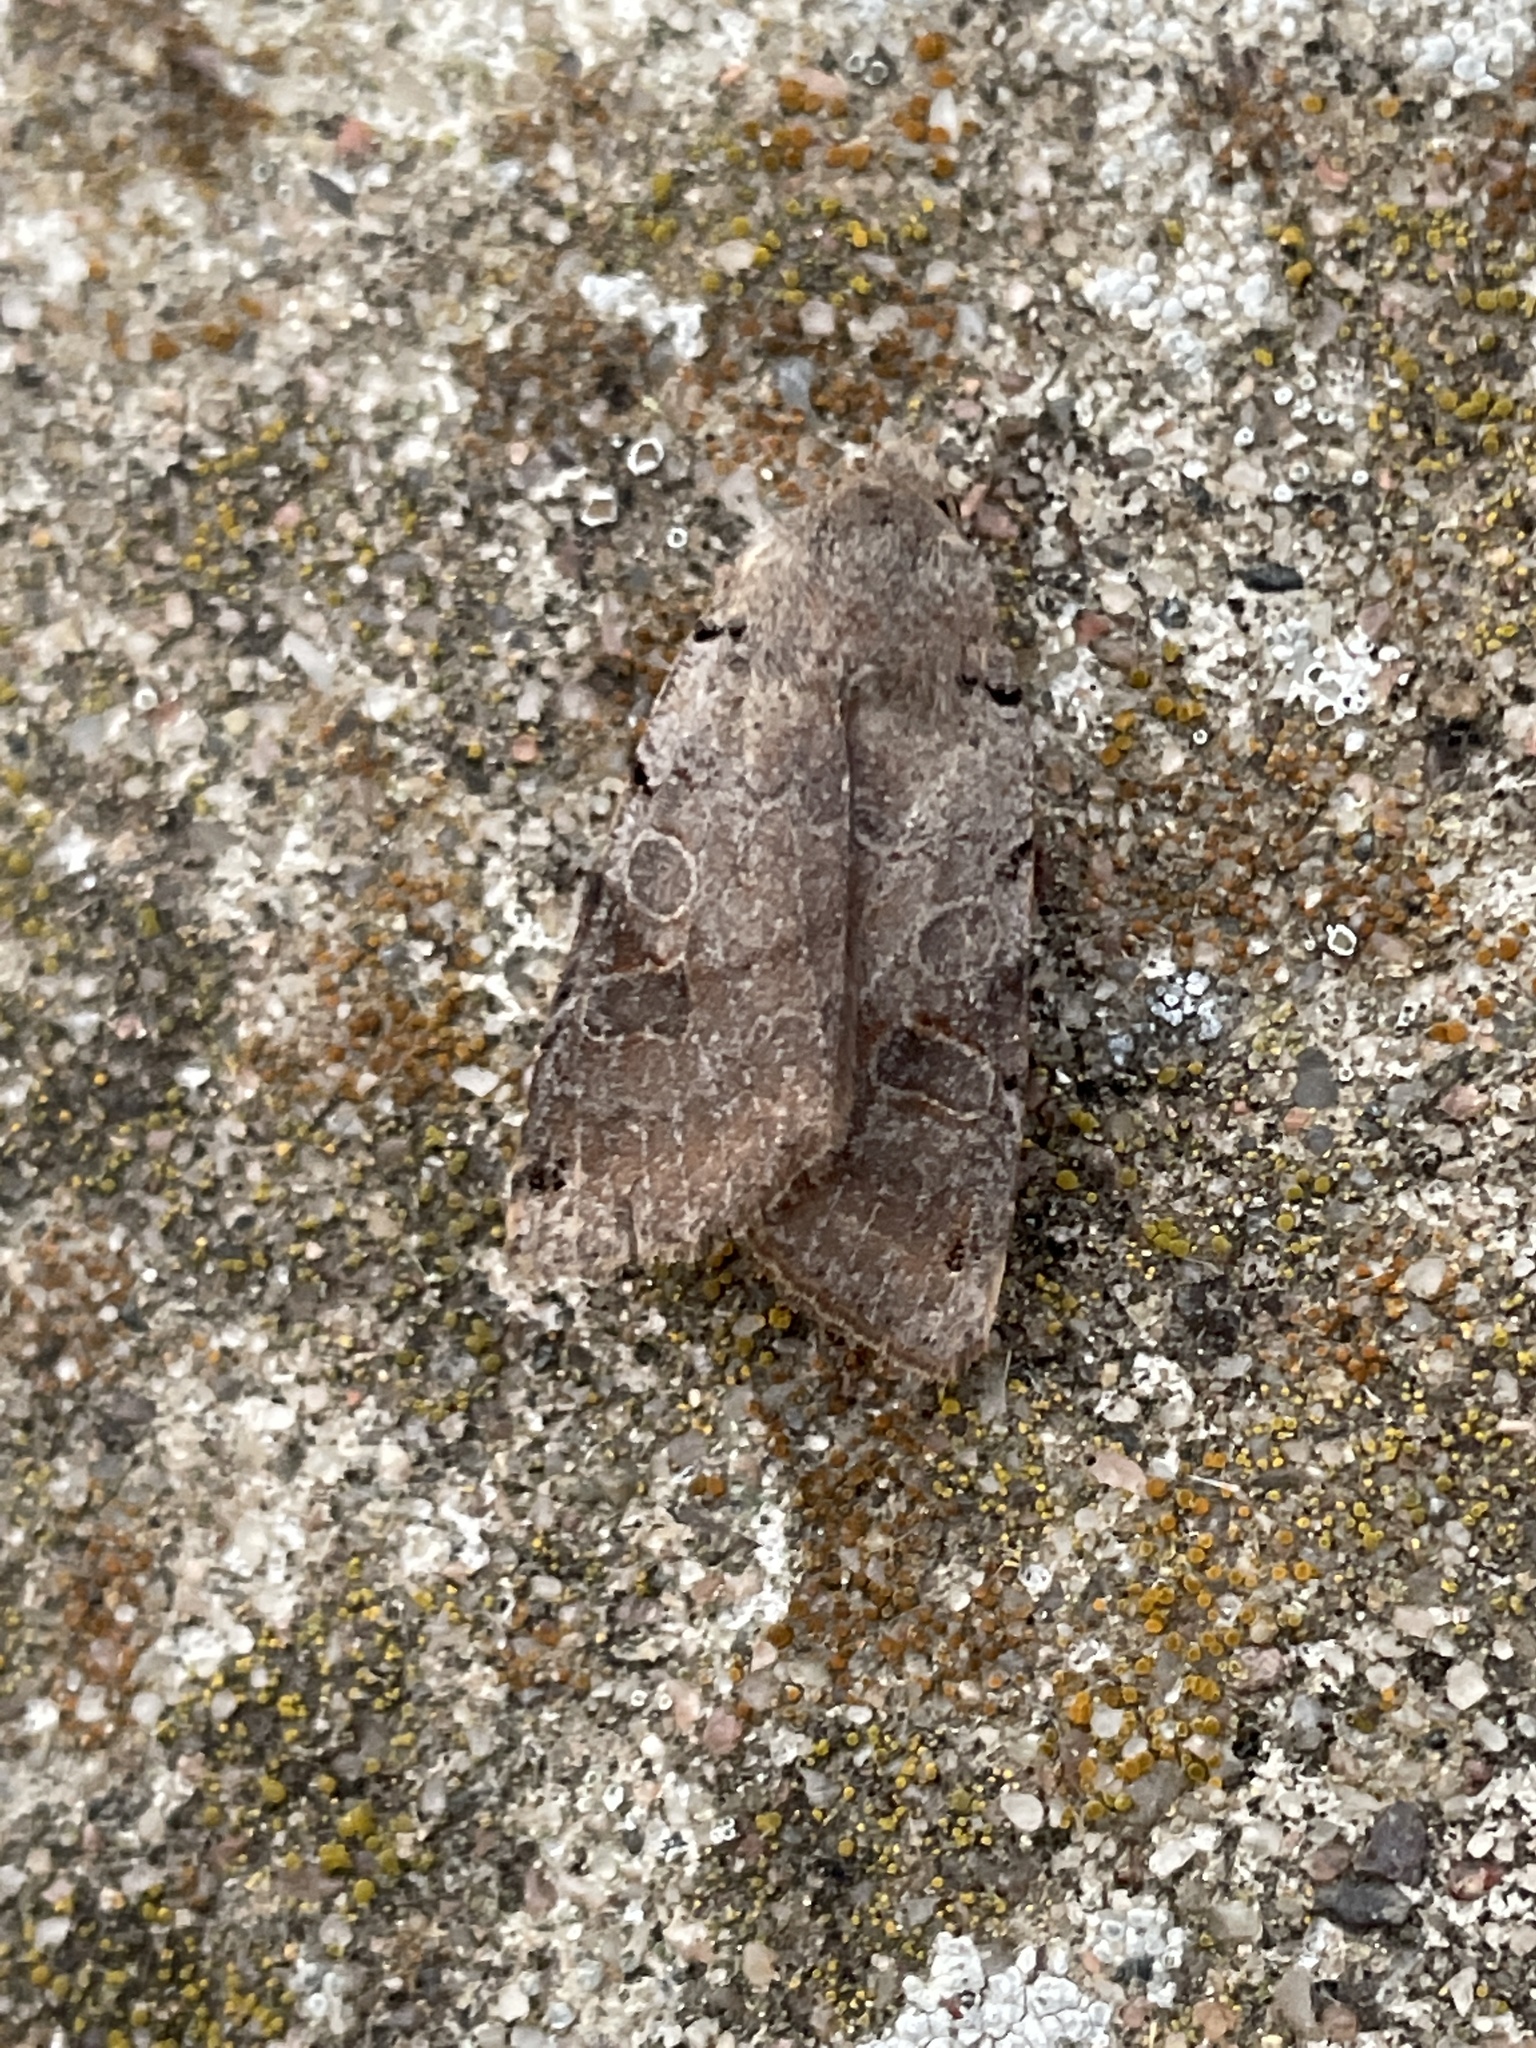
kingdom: Animalia
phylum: Arthropoda
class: Insecta
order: Lepidoptera
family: Noctuidae
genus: Agrochola
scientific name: Agrochola litura
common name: Brown-spot pinion
